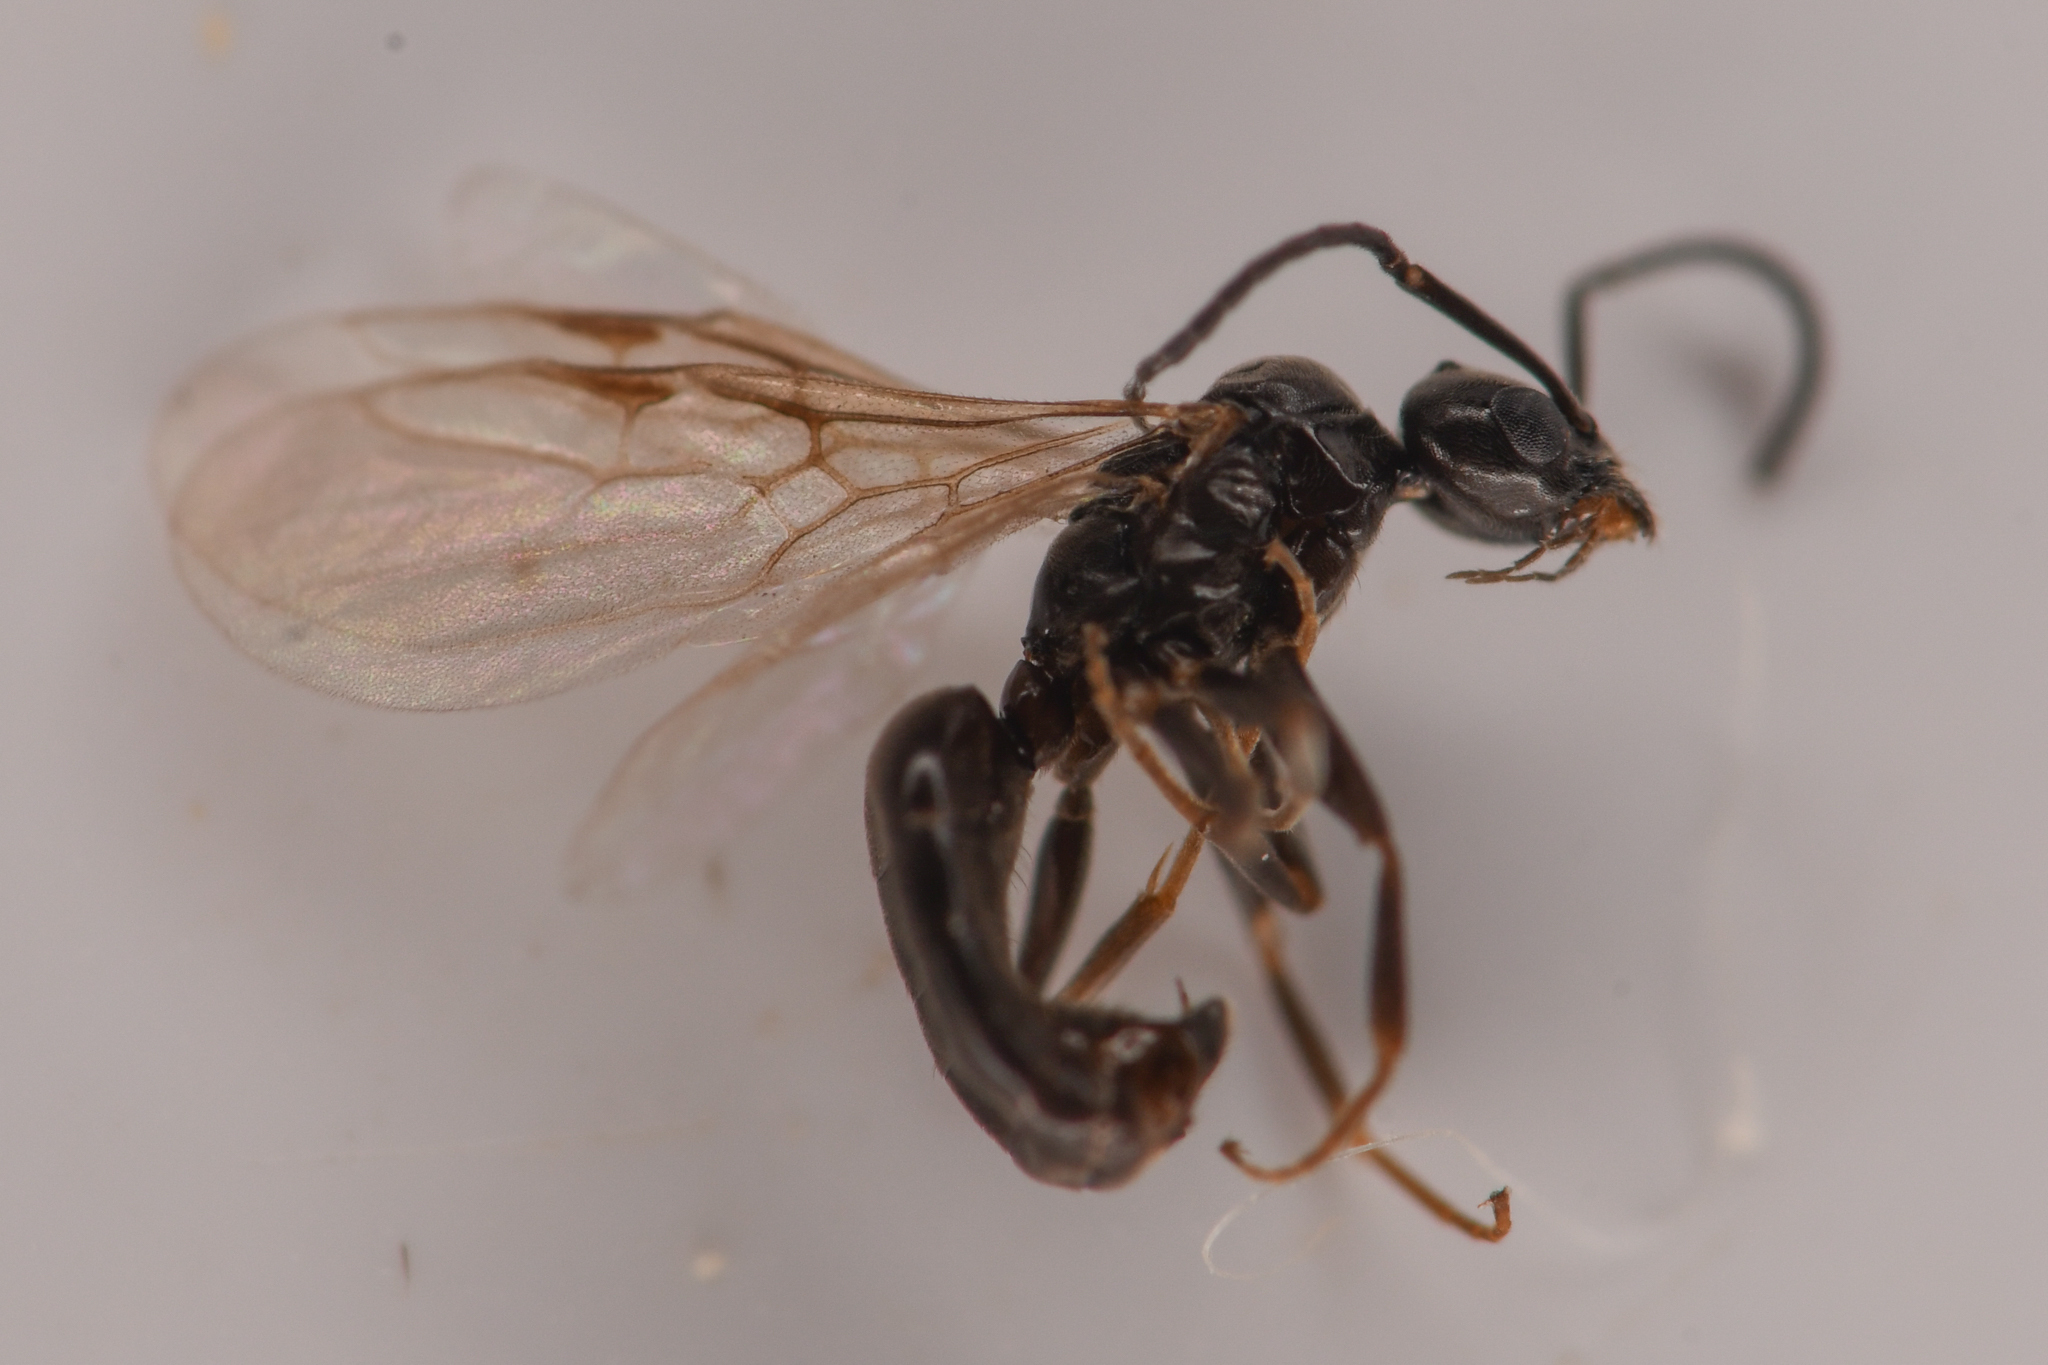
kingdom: Animalia
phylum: Arthropoda
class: Insecta
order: Hymenoptera
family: Formicidae
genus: Tapinoma
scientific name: Tapinoma sessile
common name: Odorous house ant
